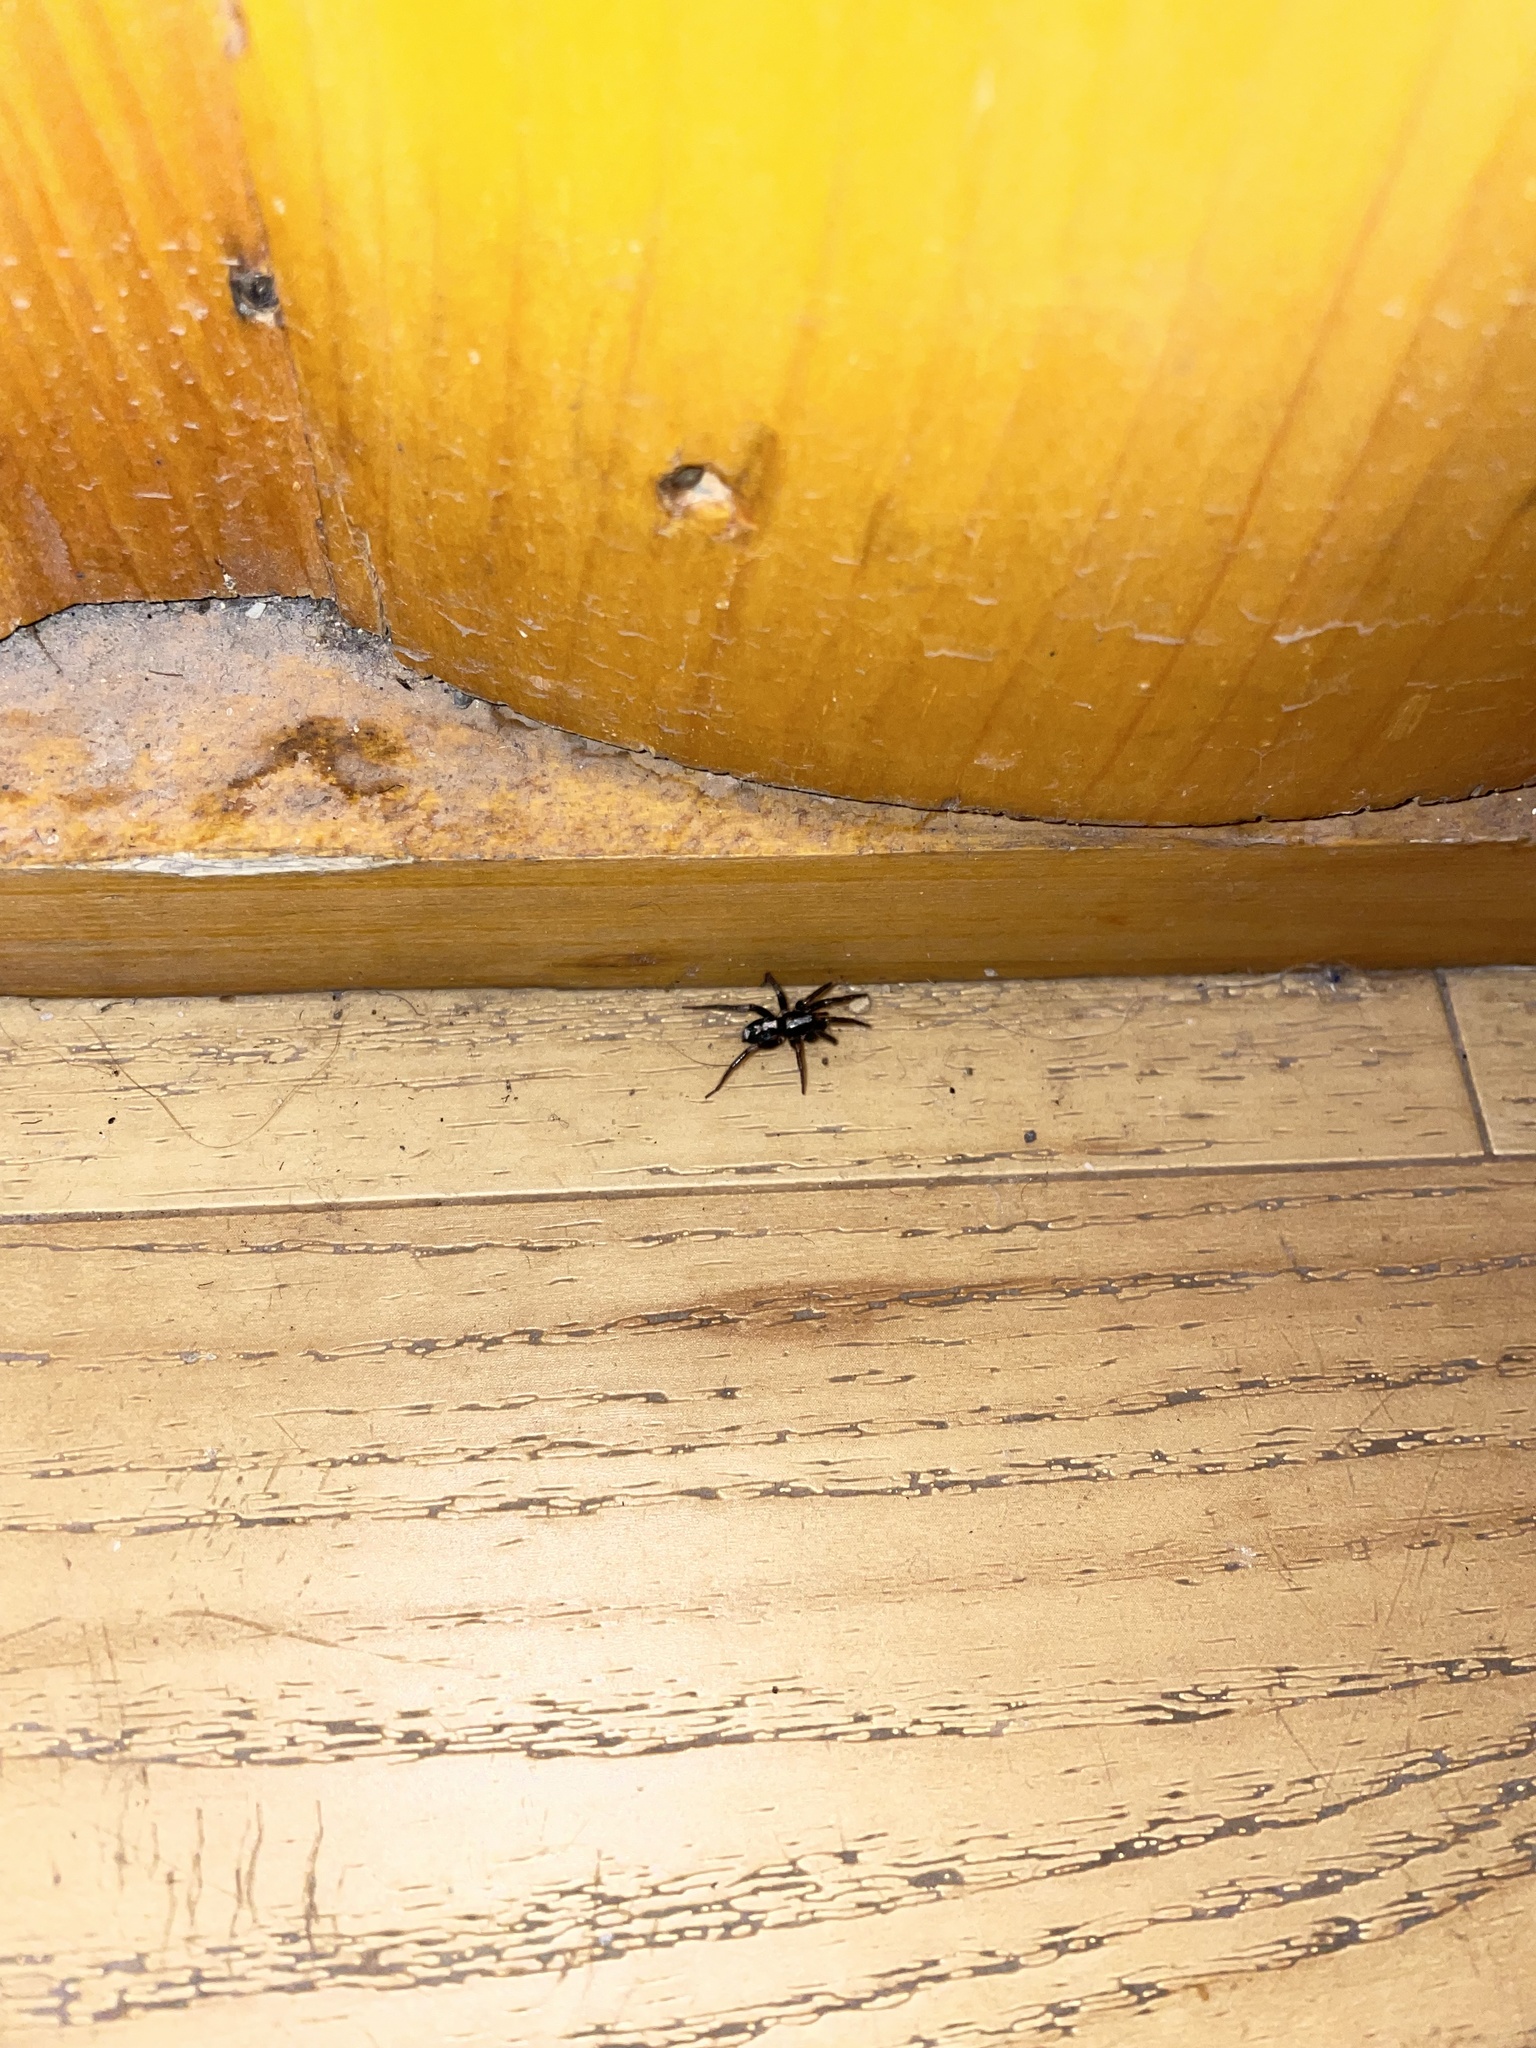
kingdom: Animalia
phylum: Arthropoda
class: Arachnida
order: Araneae
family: Gnaphosidae
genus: Herpyllus
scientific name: Herpyllus ecclesiasticus
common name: Eastern parson spider
